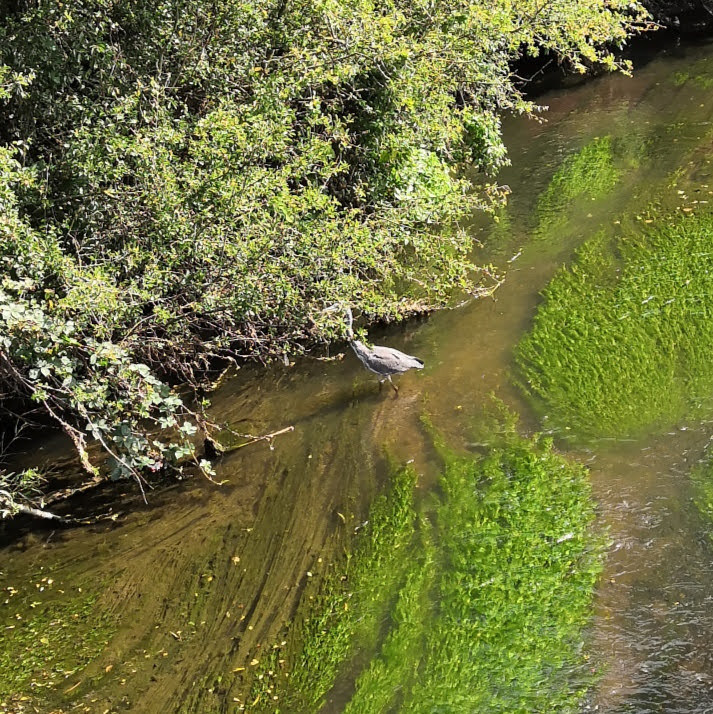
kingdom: Animalia
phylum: Chordata
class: Aves
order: Pelecaniformes
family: Ardeidae
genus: Ardea
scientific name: Ardea cinerea
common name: Grey heron
